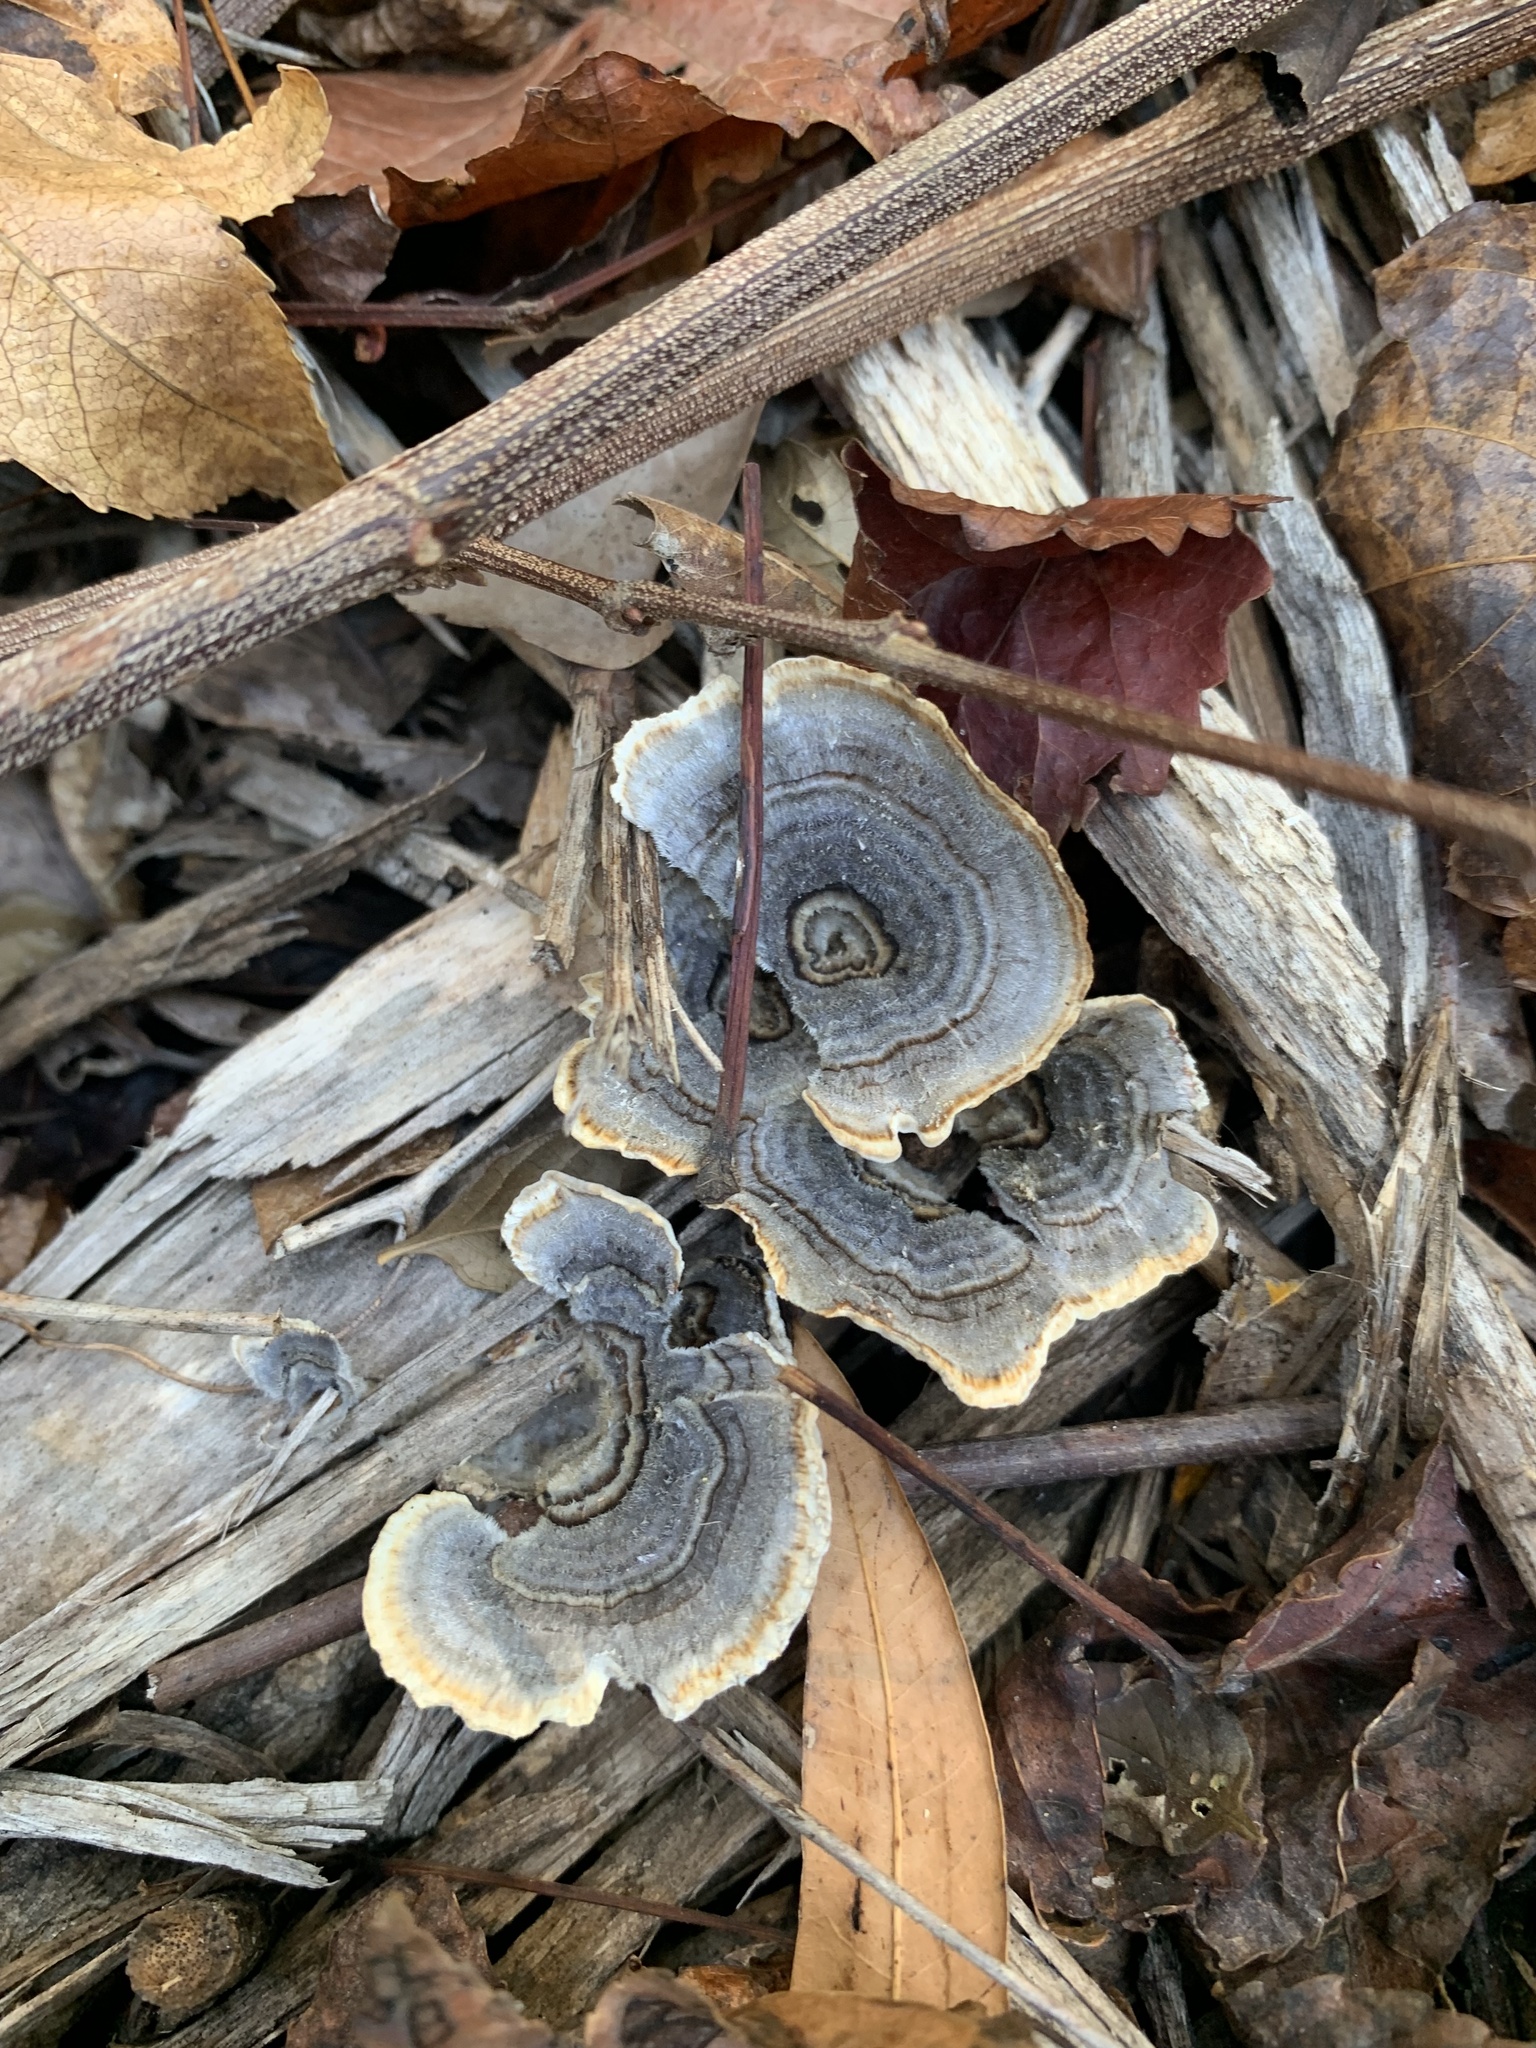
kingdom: Fungi
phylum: Basidiomycota
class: Agaricomycetes
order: Polyporales
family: Polyporaceae
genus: Trametes
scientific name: Trametes versicolor
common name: Turkeytail
